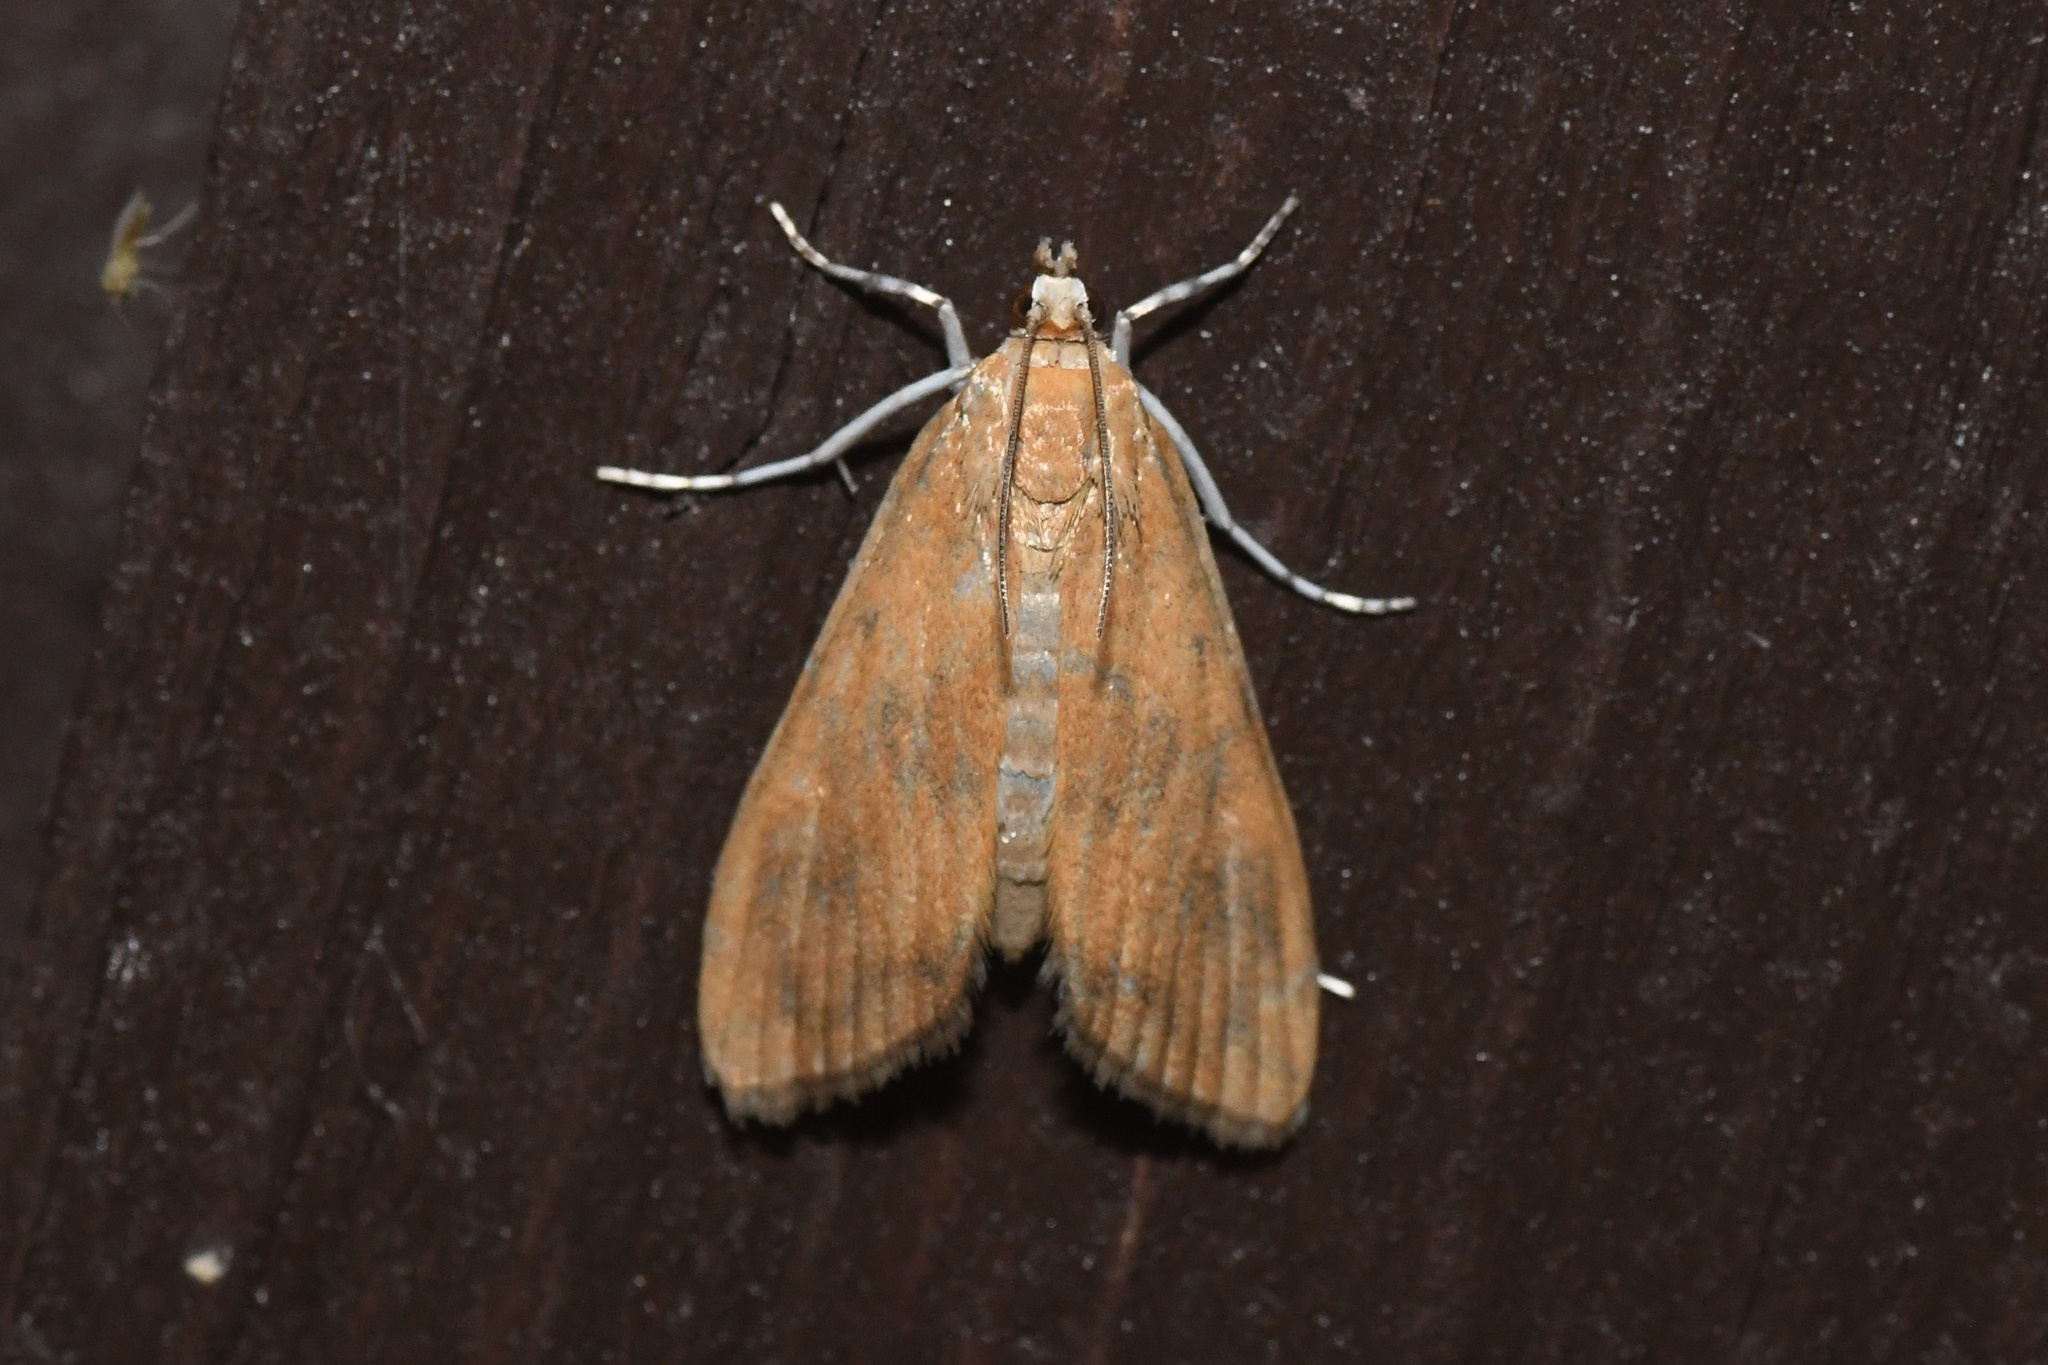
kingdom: Animalia
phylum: Arthropoda
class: Insecta
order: Lepidoptera
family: Crambidae
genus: Elophila
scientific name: Elophila gyralis
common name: Waterlily borer moth
